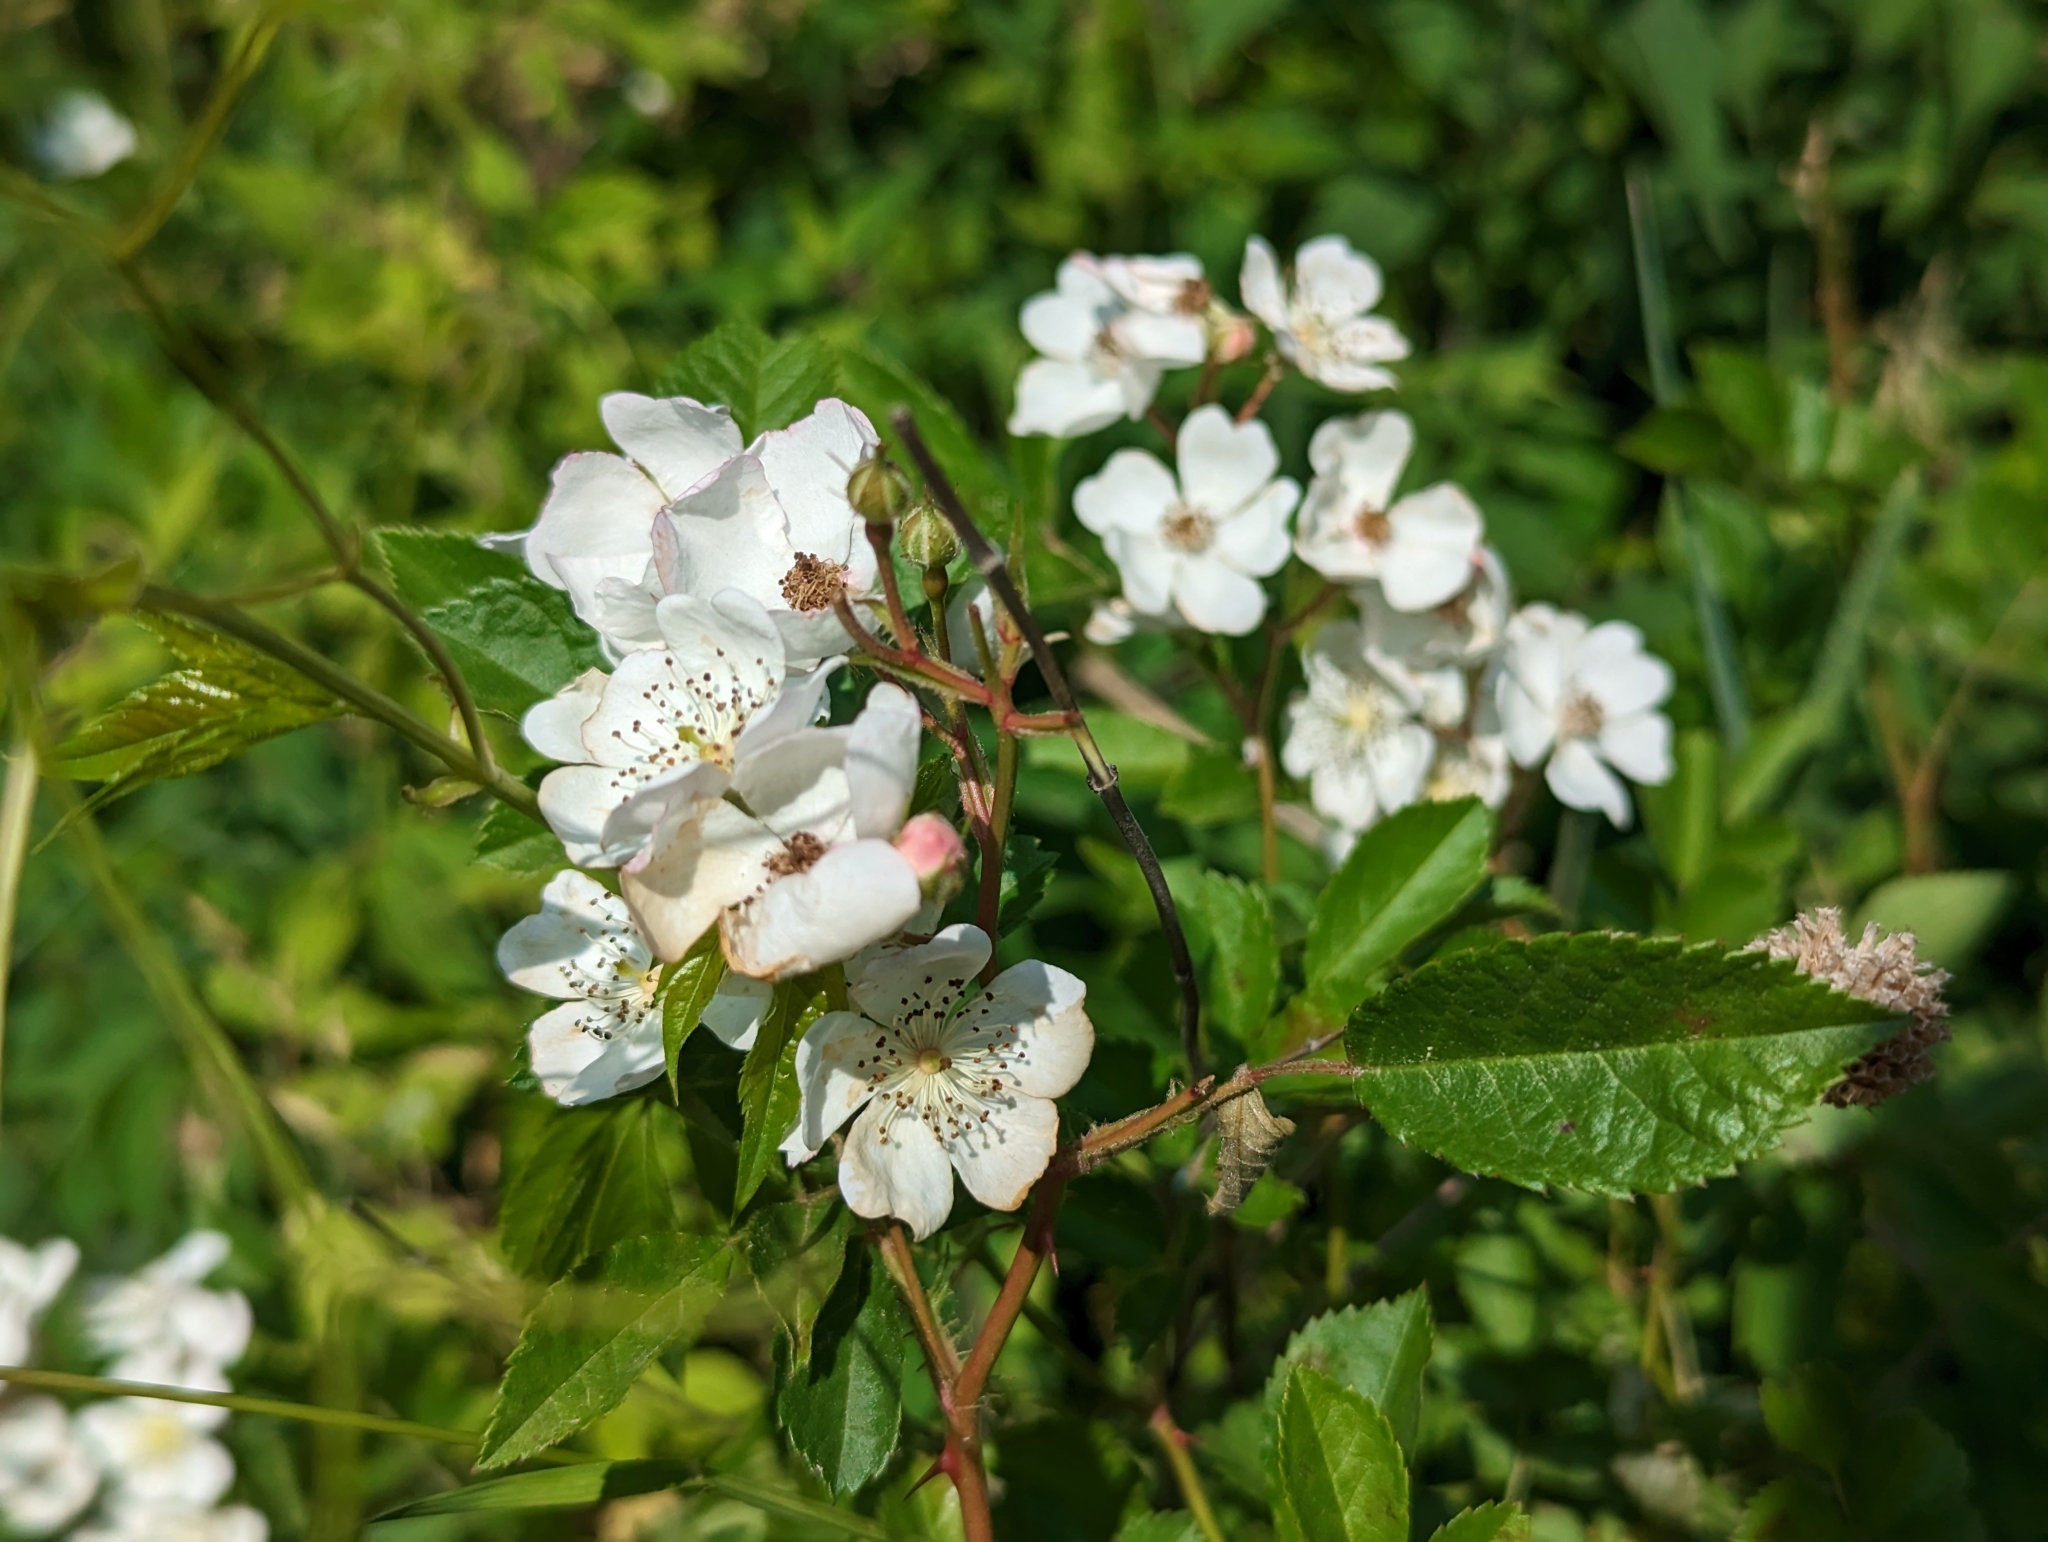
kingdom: Plantae
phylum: Tracheophyta
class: Magnoliopsida
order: Rosales
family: Rosaceae
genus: Rosa
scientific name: Rosa multiflora
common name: Multiflora rose
